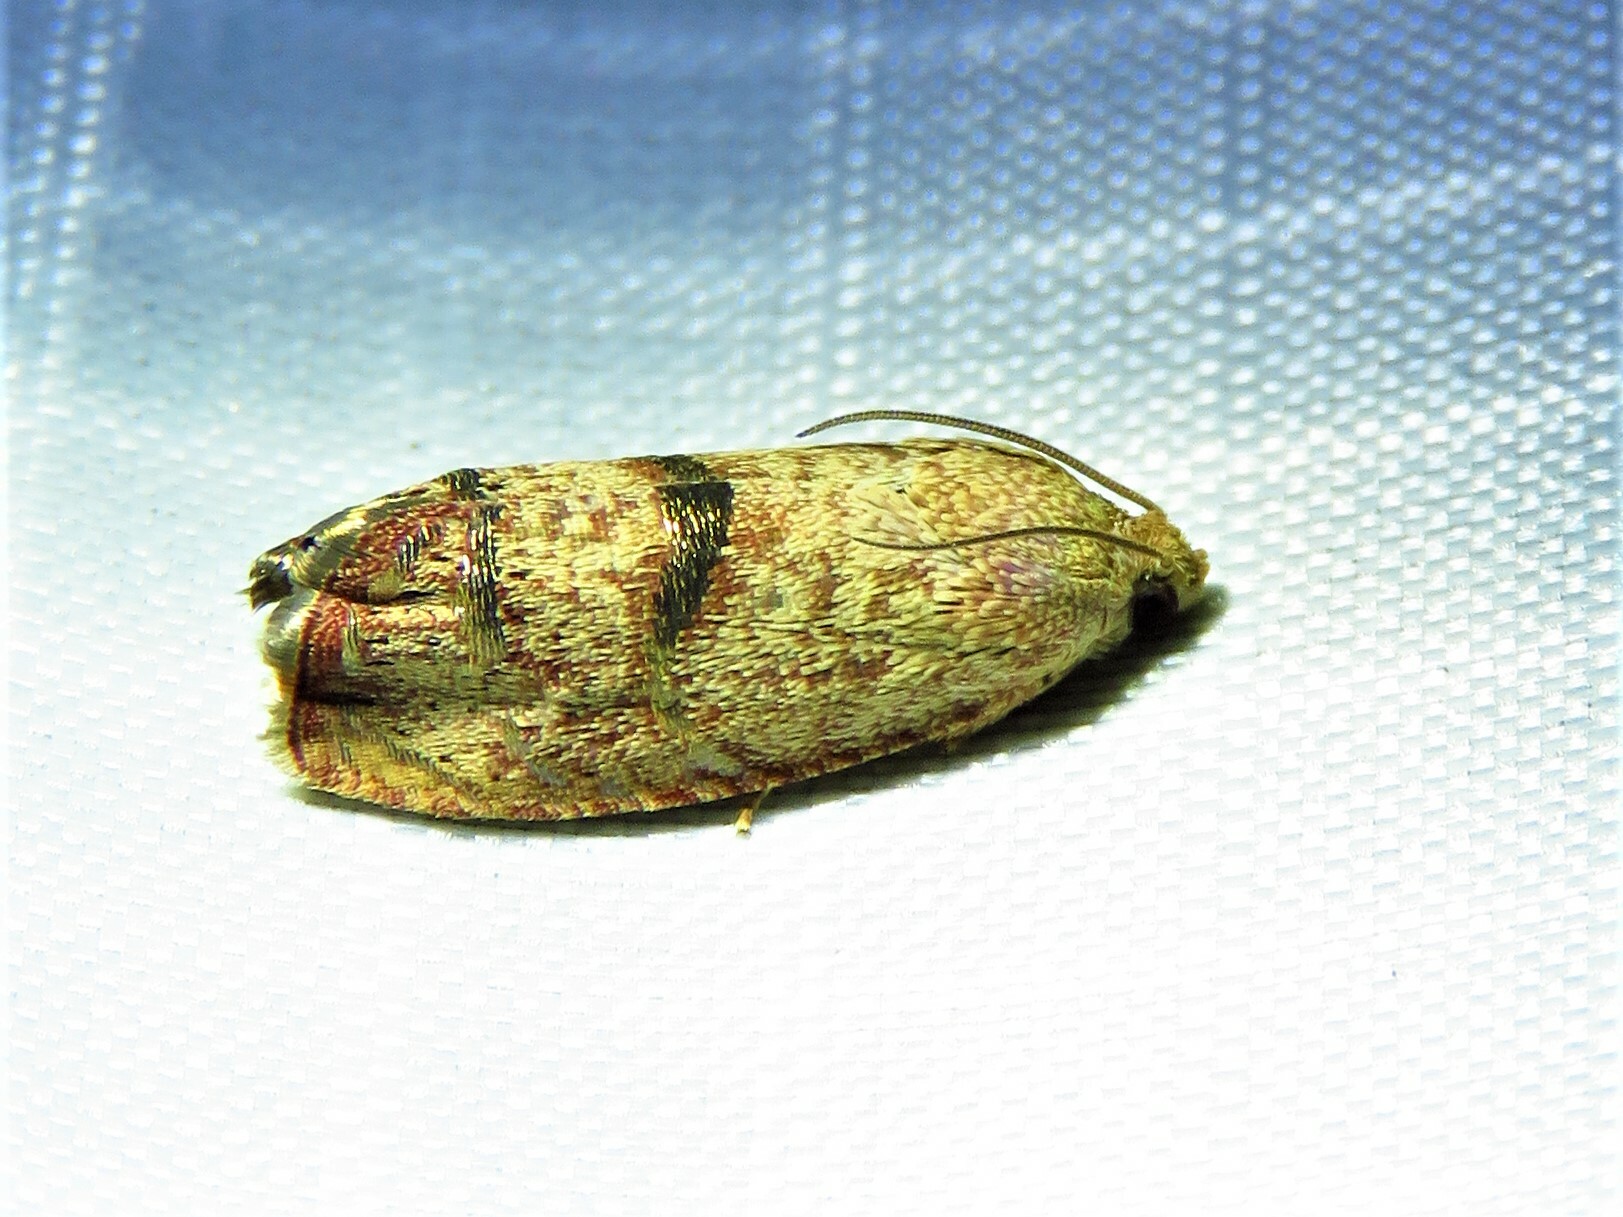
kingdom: Animalia
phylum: Arthropoda
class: Insecta
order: Lepidoptera
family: Tortricidae
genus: Cydia
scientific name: Cydia latiferreana
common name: Filbertworm moth
